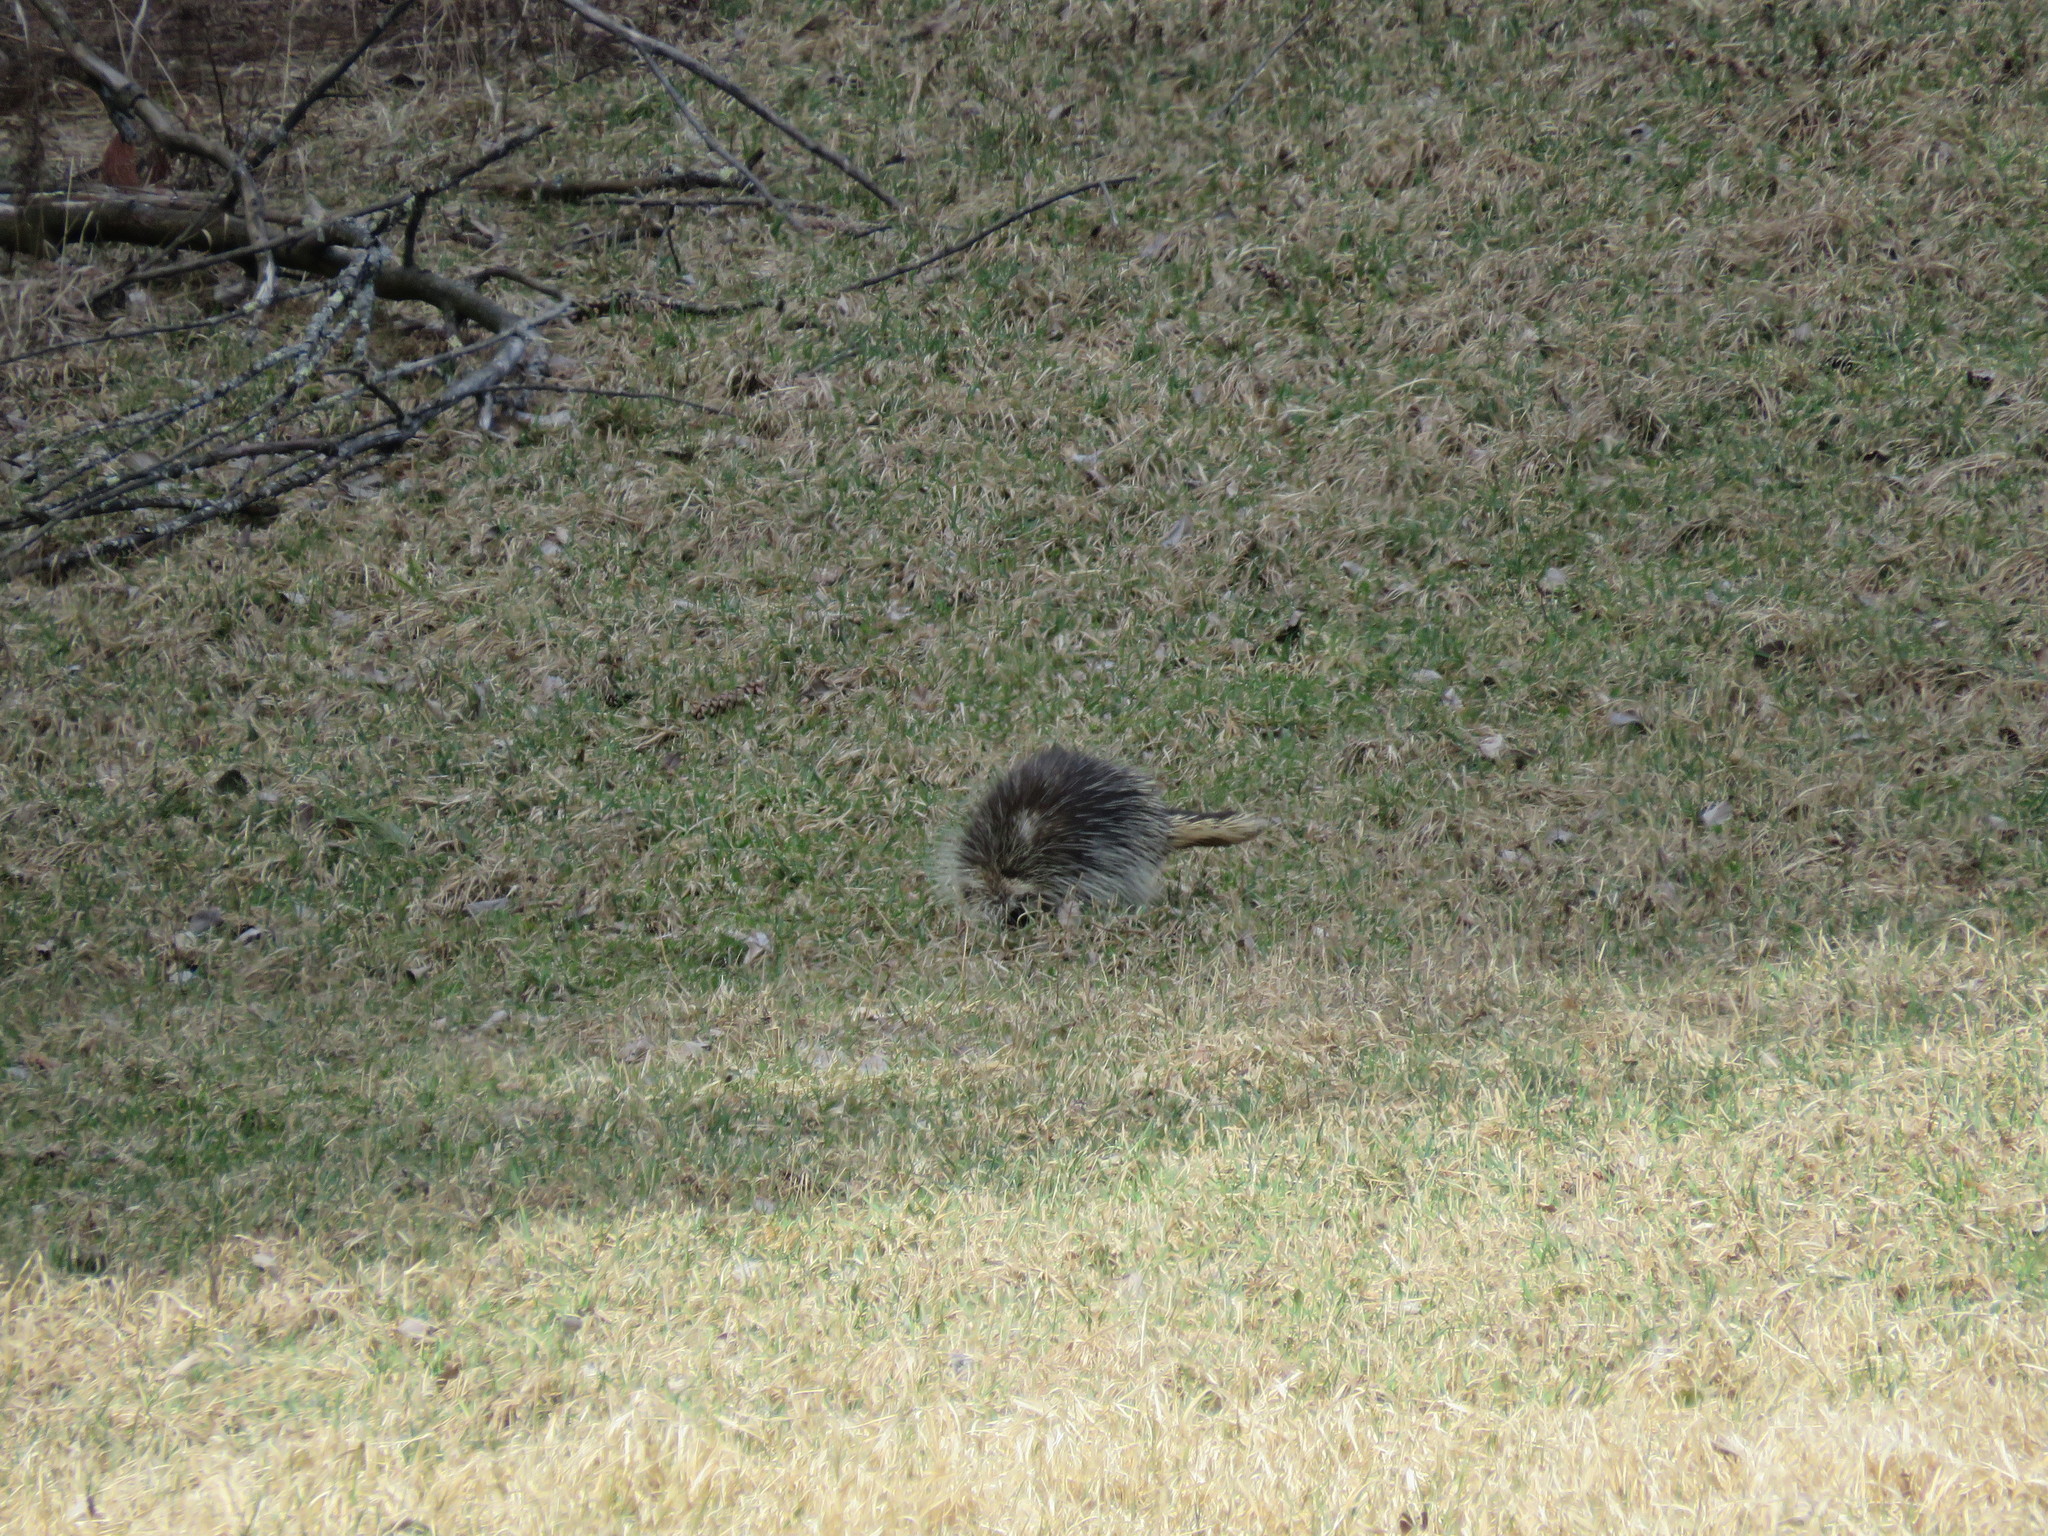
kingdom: Animalia
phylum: Chordata
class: Mammalia
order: Rodentia
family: Erethizontidae
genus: Erethizon
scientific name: Erethizon dorsatus
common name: North american porcupine
